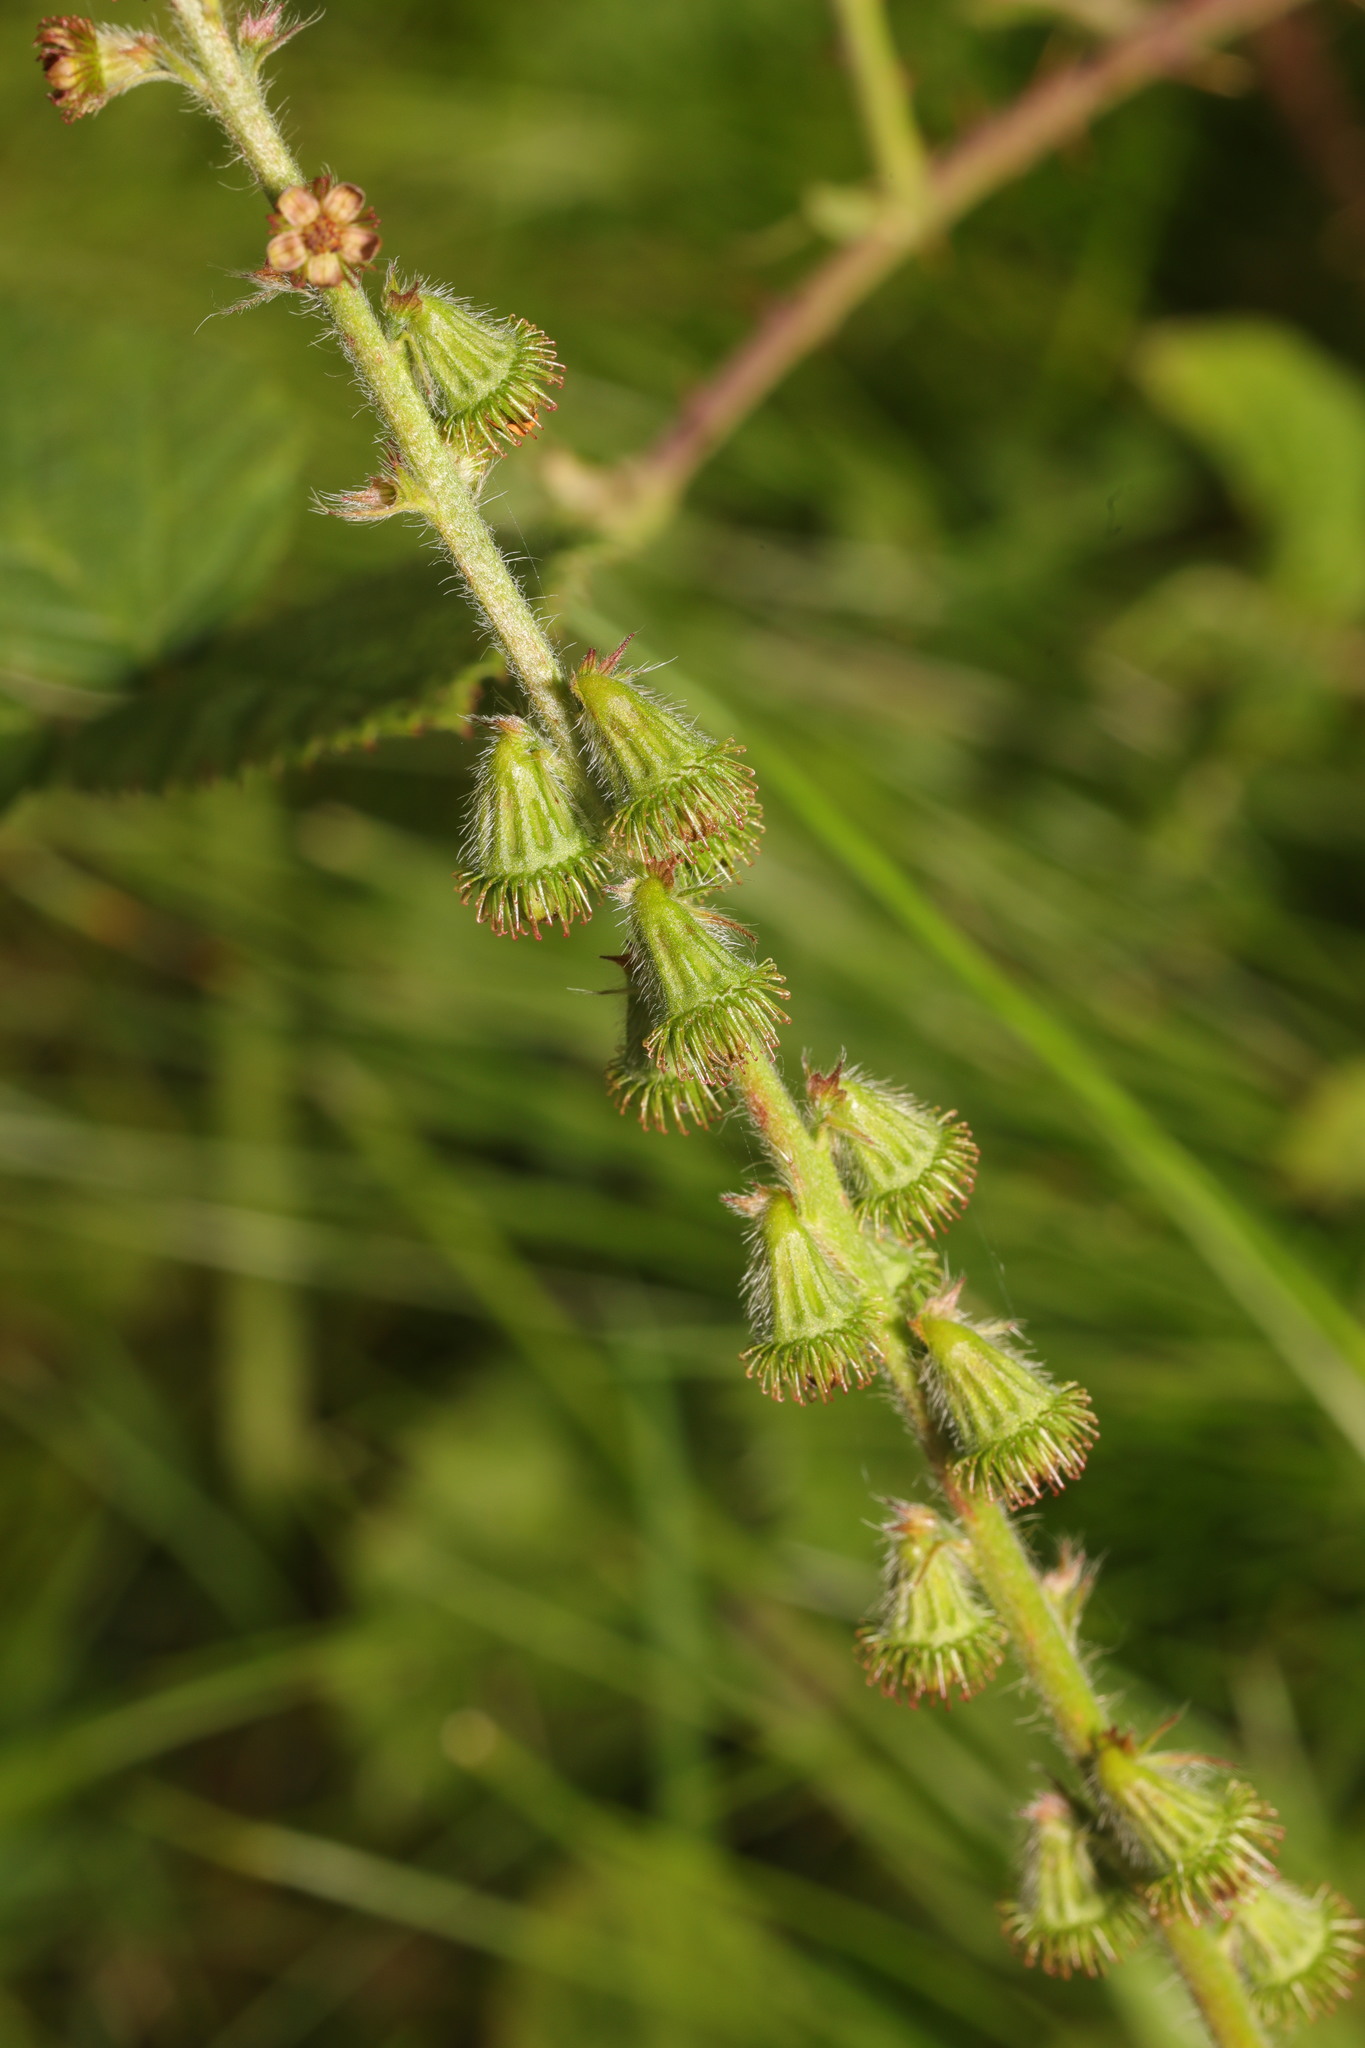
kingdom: Plantae
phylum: Tracheophyta
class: Magnoliopsida
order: Rosales
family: Rosaceae
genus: Agrimonia
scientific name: Agrimonia eupatoria
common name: Agrimony
